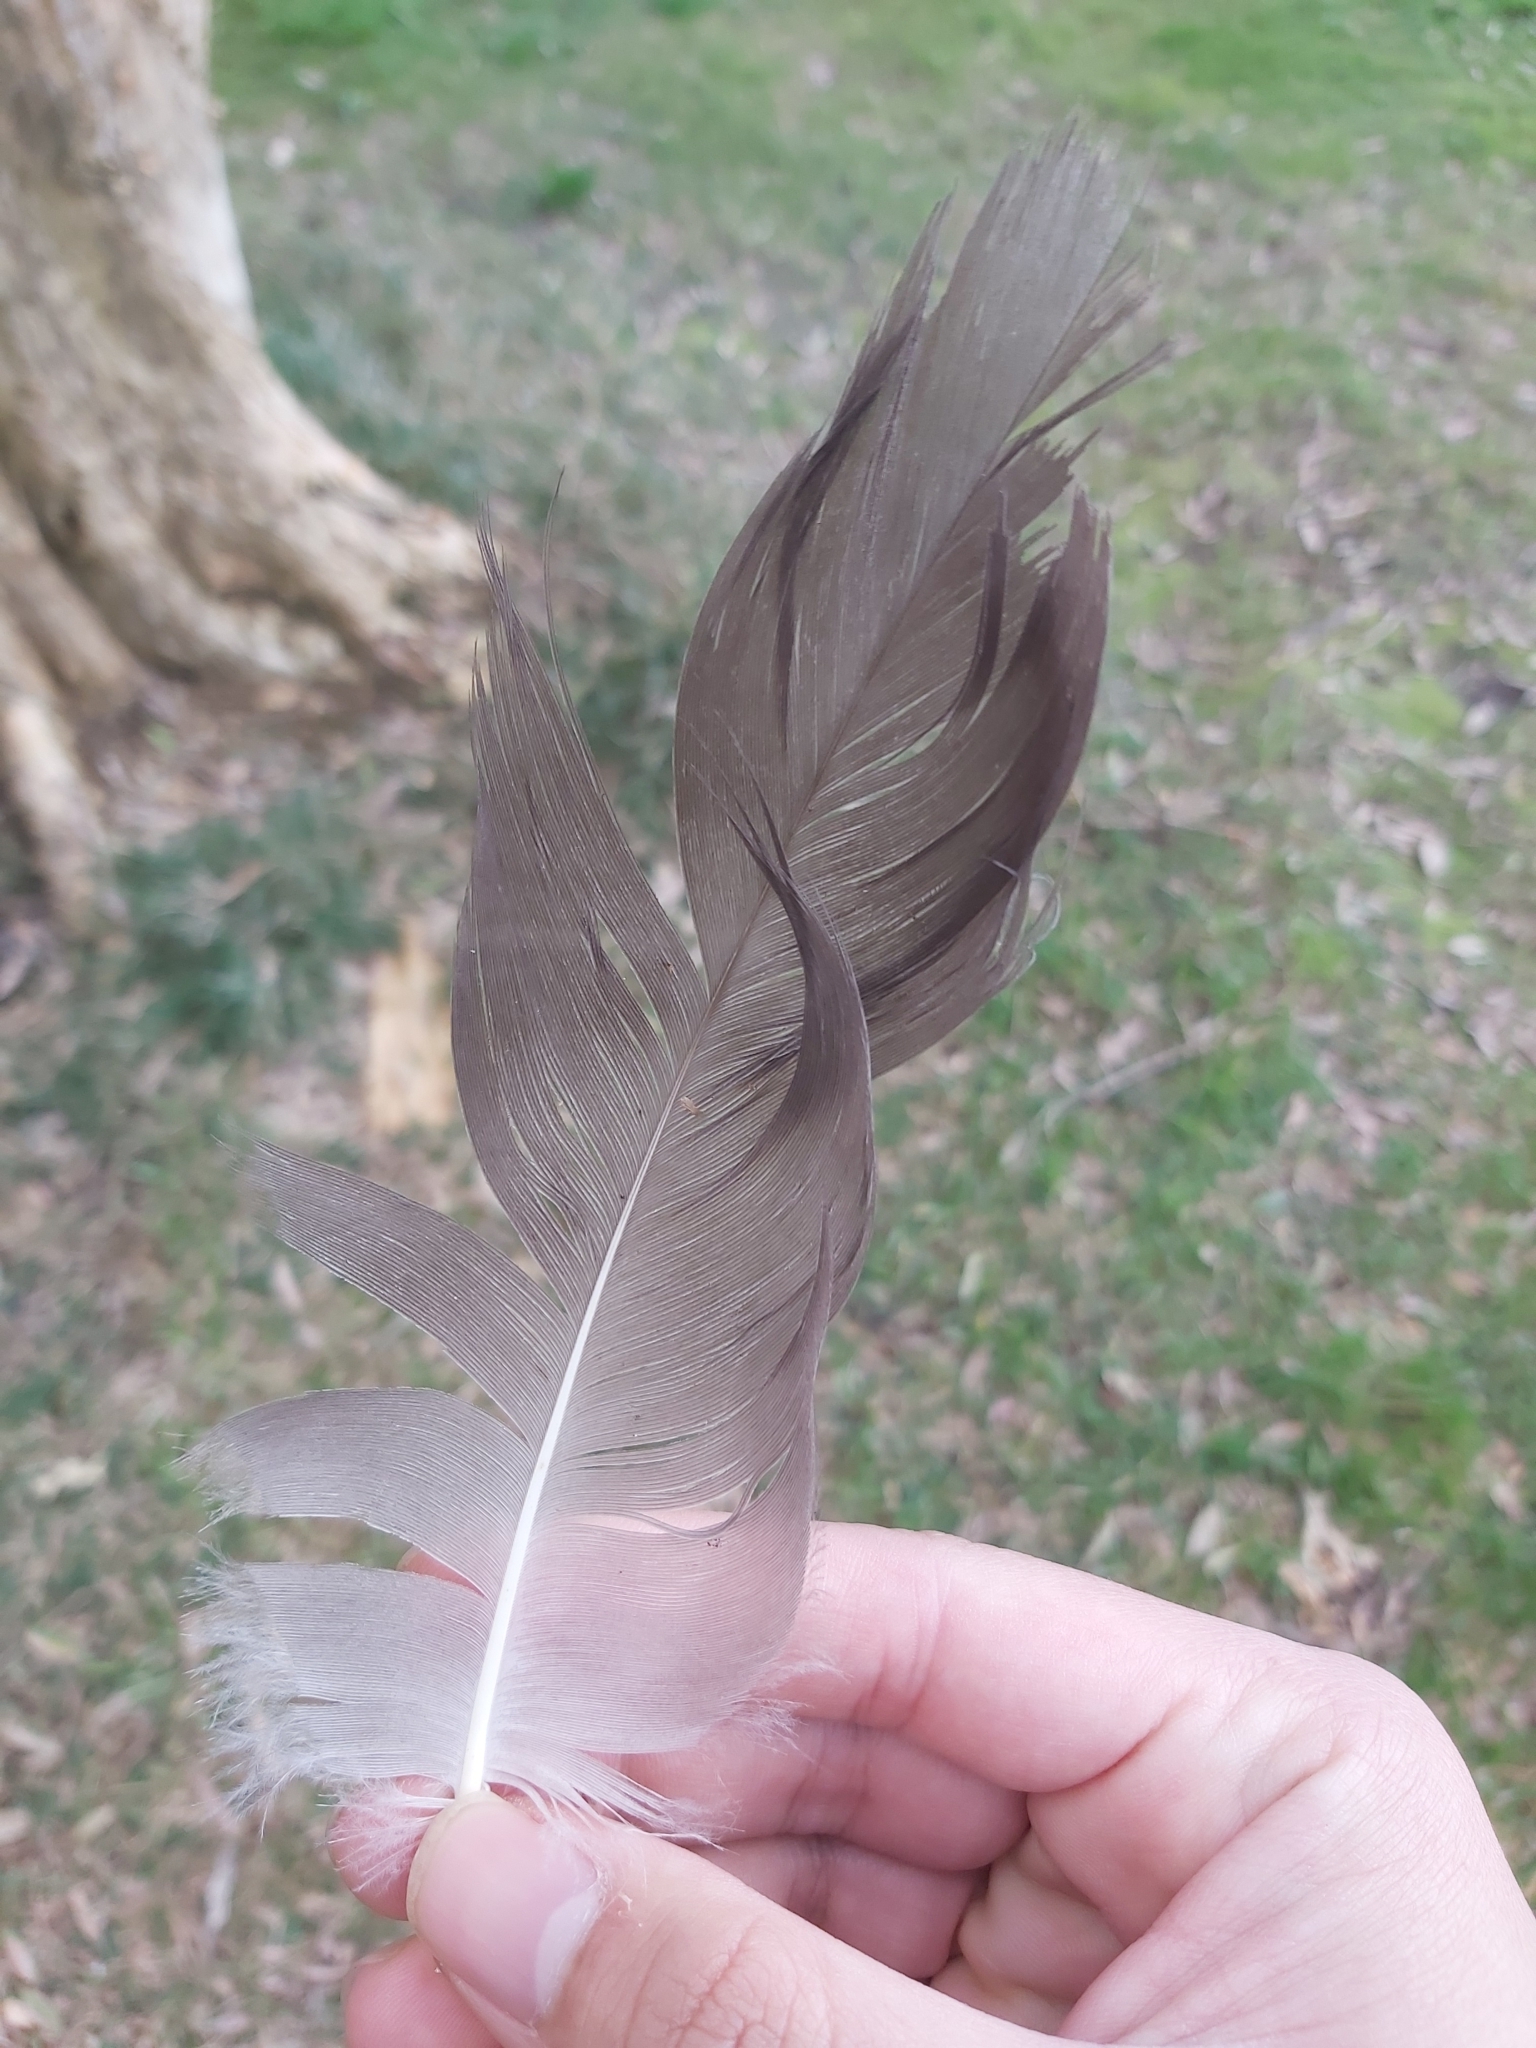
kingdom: Animalia
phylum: Chordata
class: Aves
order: Pelecaniformes
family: Ardeidae
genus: Egretta
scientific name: Egretta novaehollandiae
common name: White-faced heron
